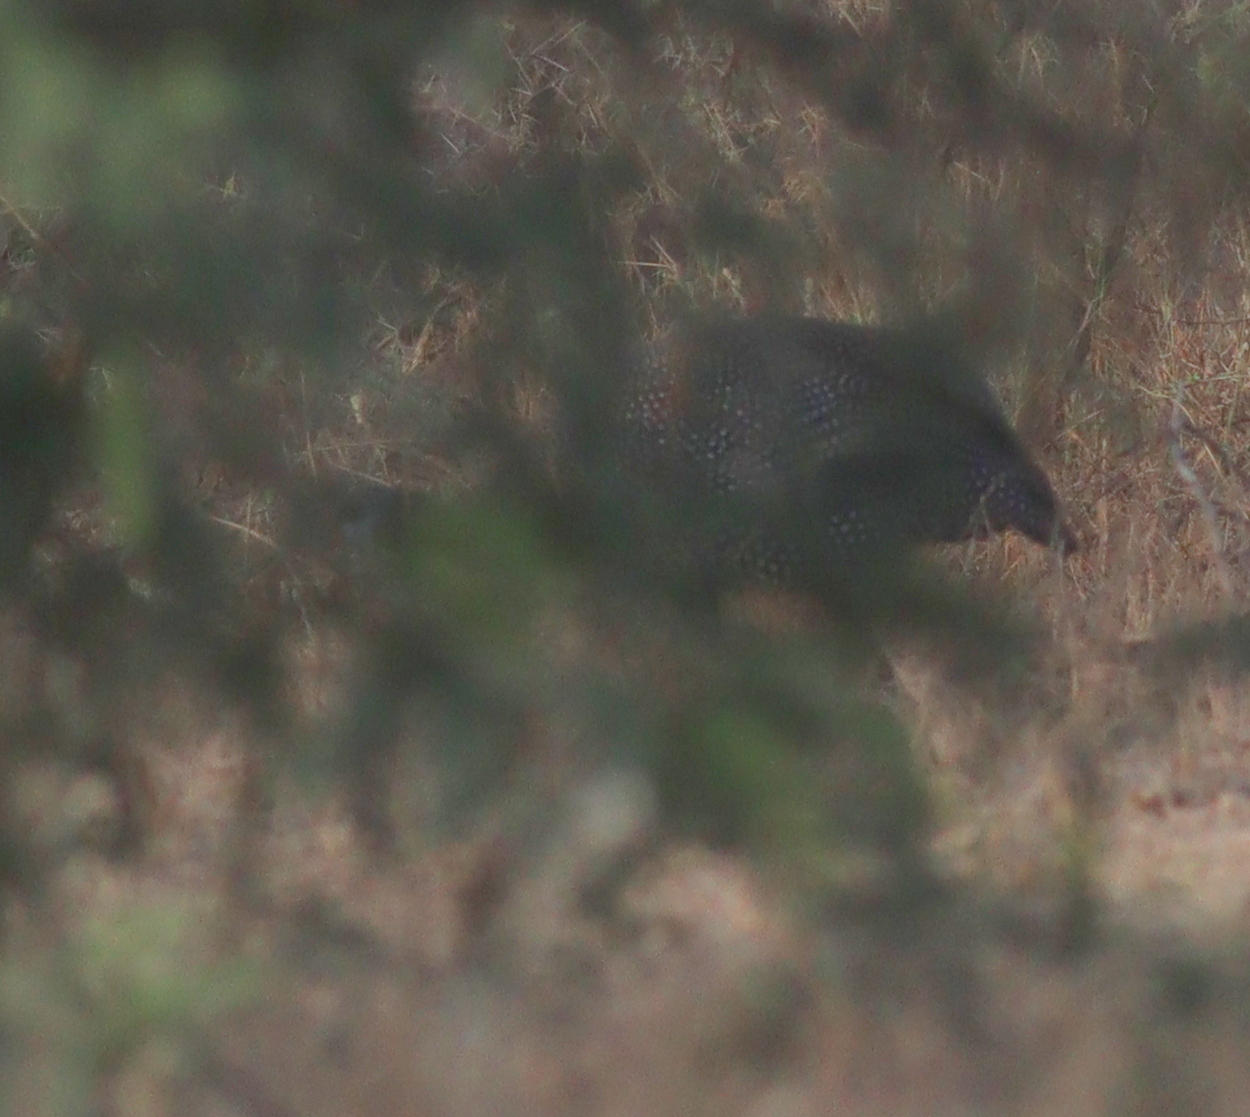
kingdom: Animalia
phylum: Chordata
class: Aves
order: Galliformes
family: Numididae
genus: Numida
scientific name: Numida meleagris
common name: Helmeted guineafowl
